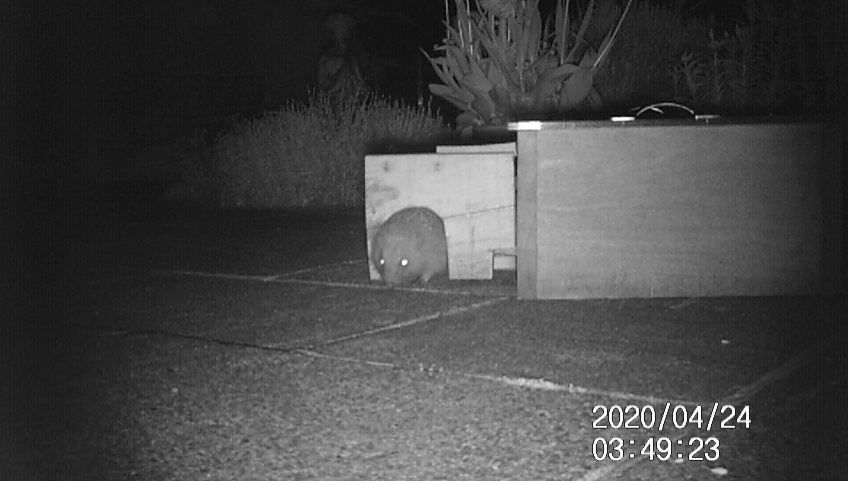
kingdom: Animalia
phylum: Chordata
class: Mammalia
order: Erinaceomorpha
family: Erinaceidae
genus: Erinaceus
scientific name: Erinaceus europaeus
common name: West european hedgehog
